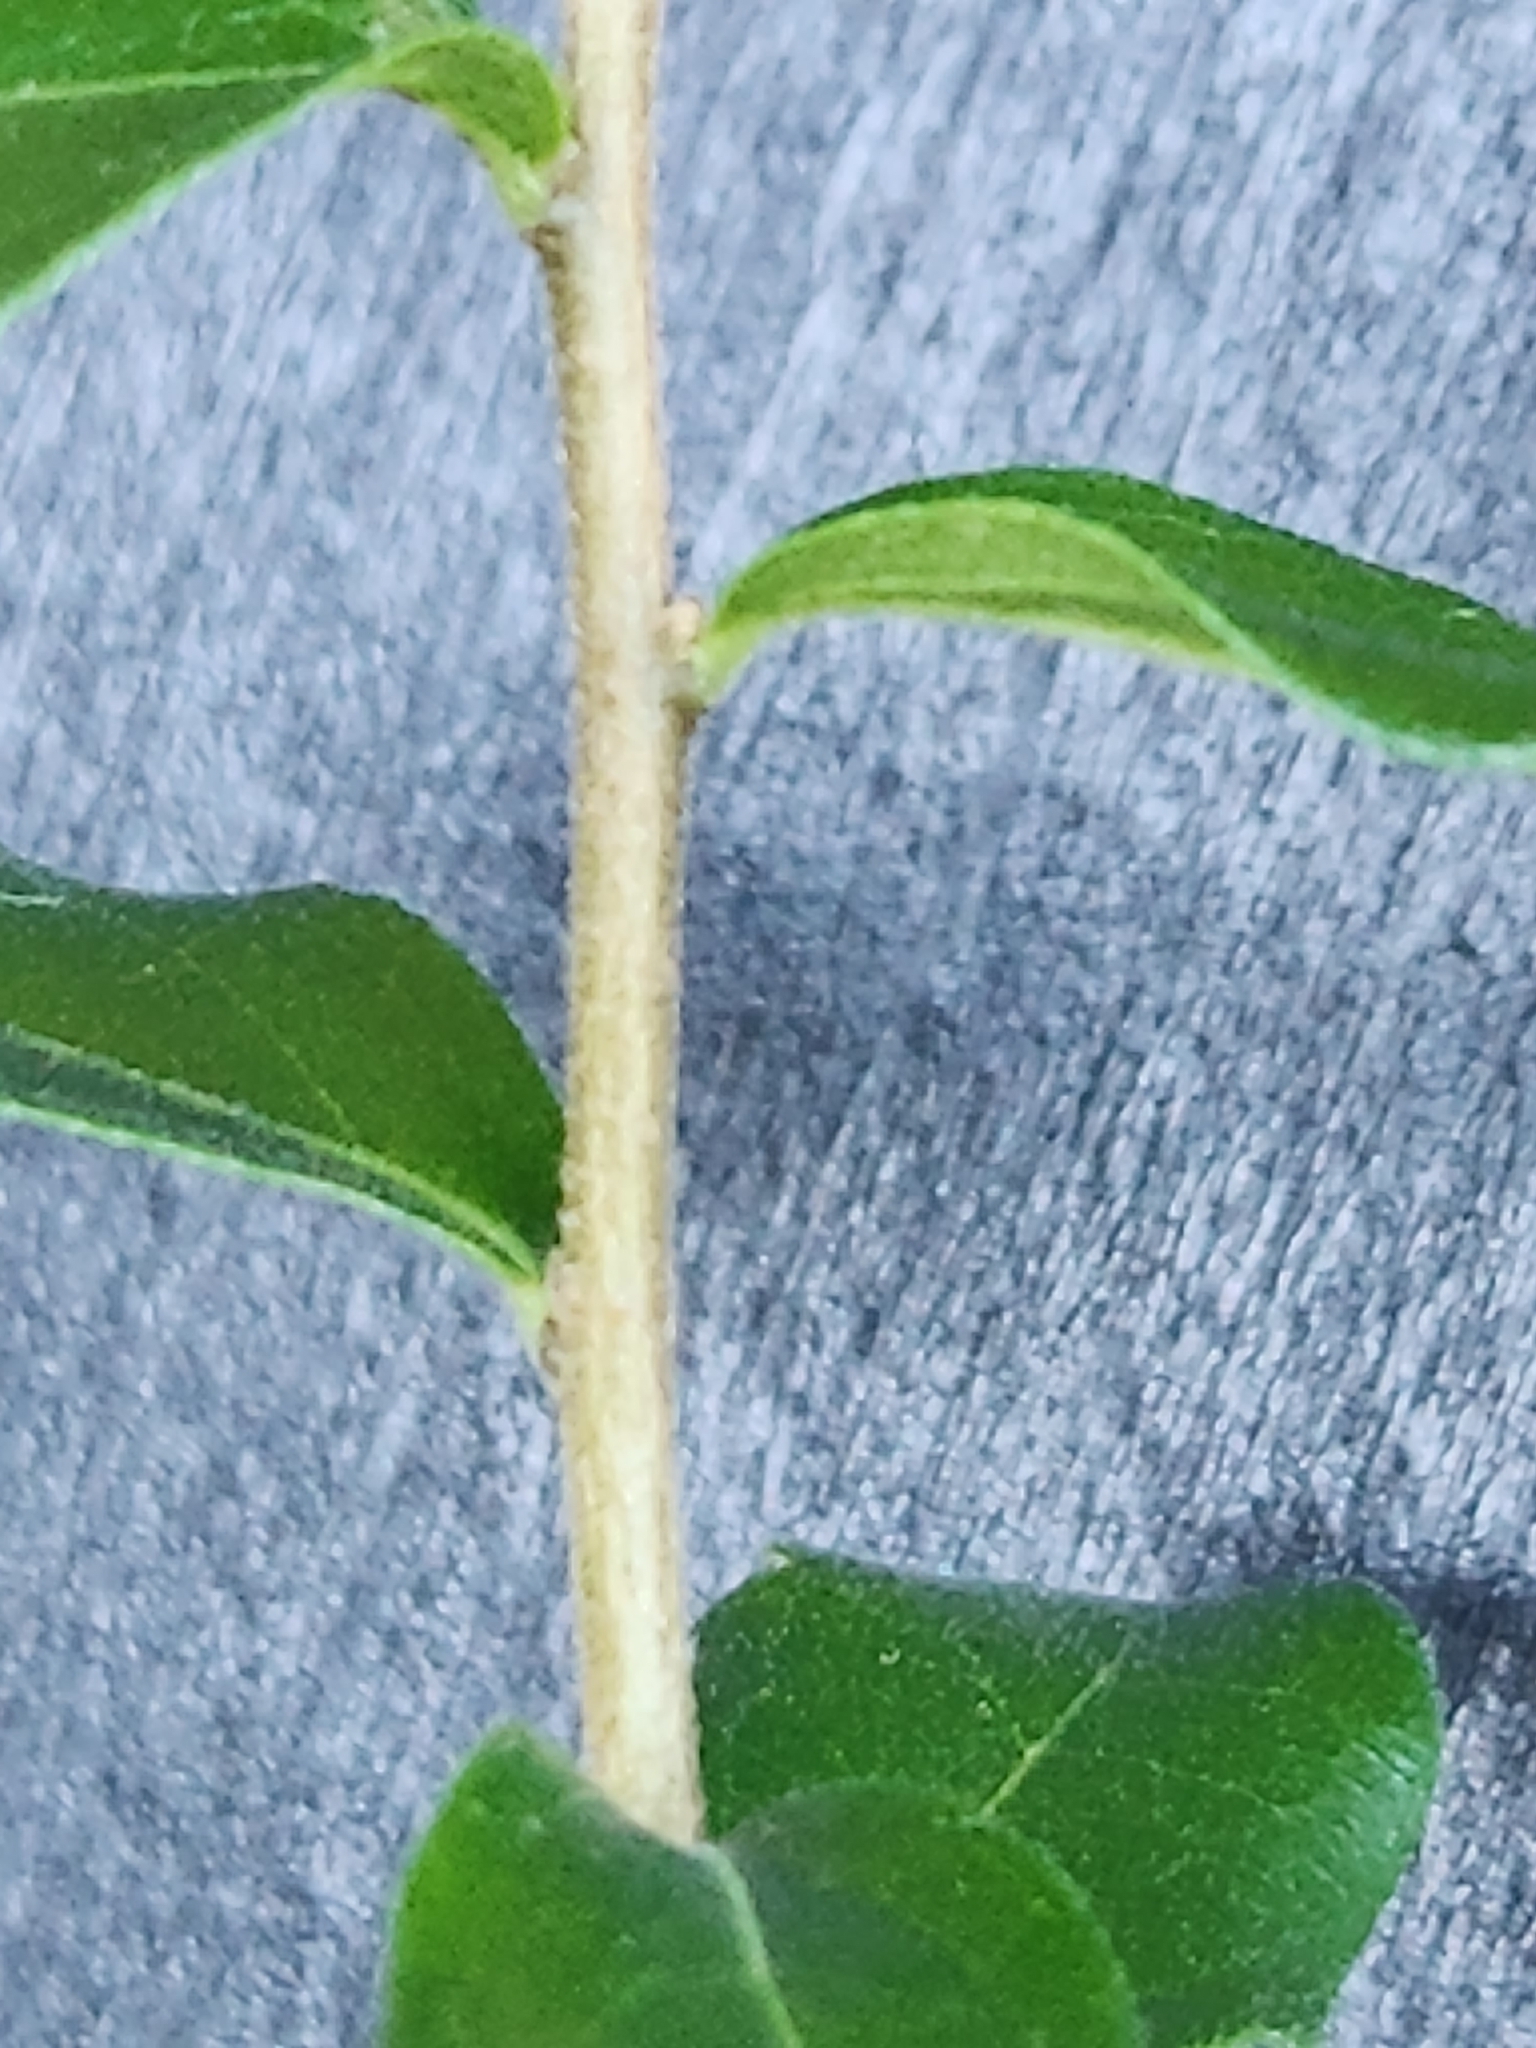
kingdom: Plantae
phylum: Tracheophyta
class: Magnoliopsida
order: Ericales
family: Ebenaceae
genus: Diospyros
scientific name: Diospyros texana
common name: Texas persimmon
